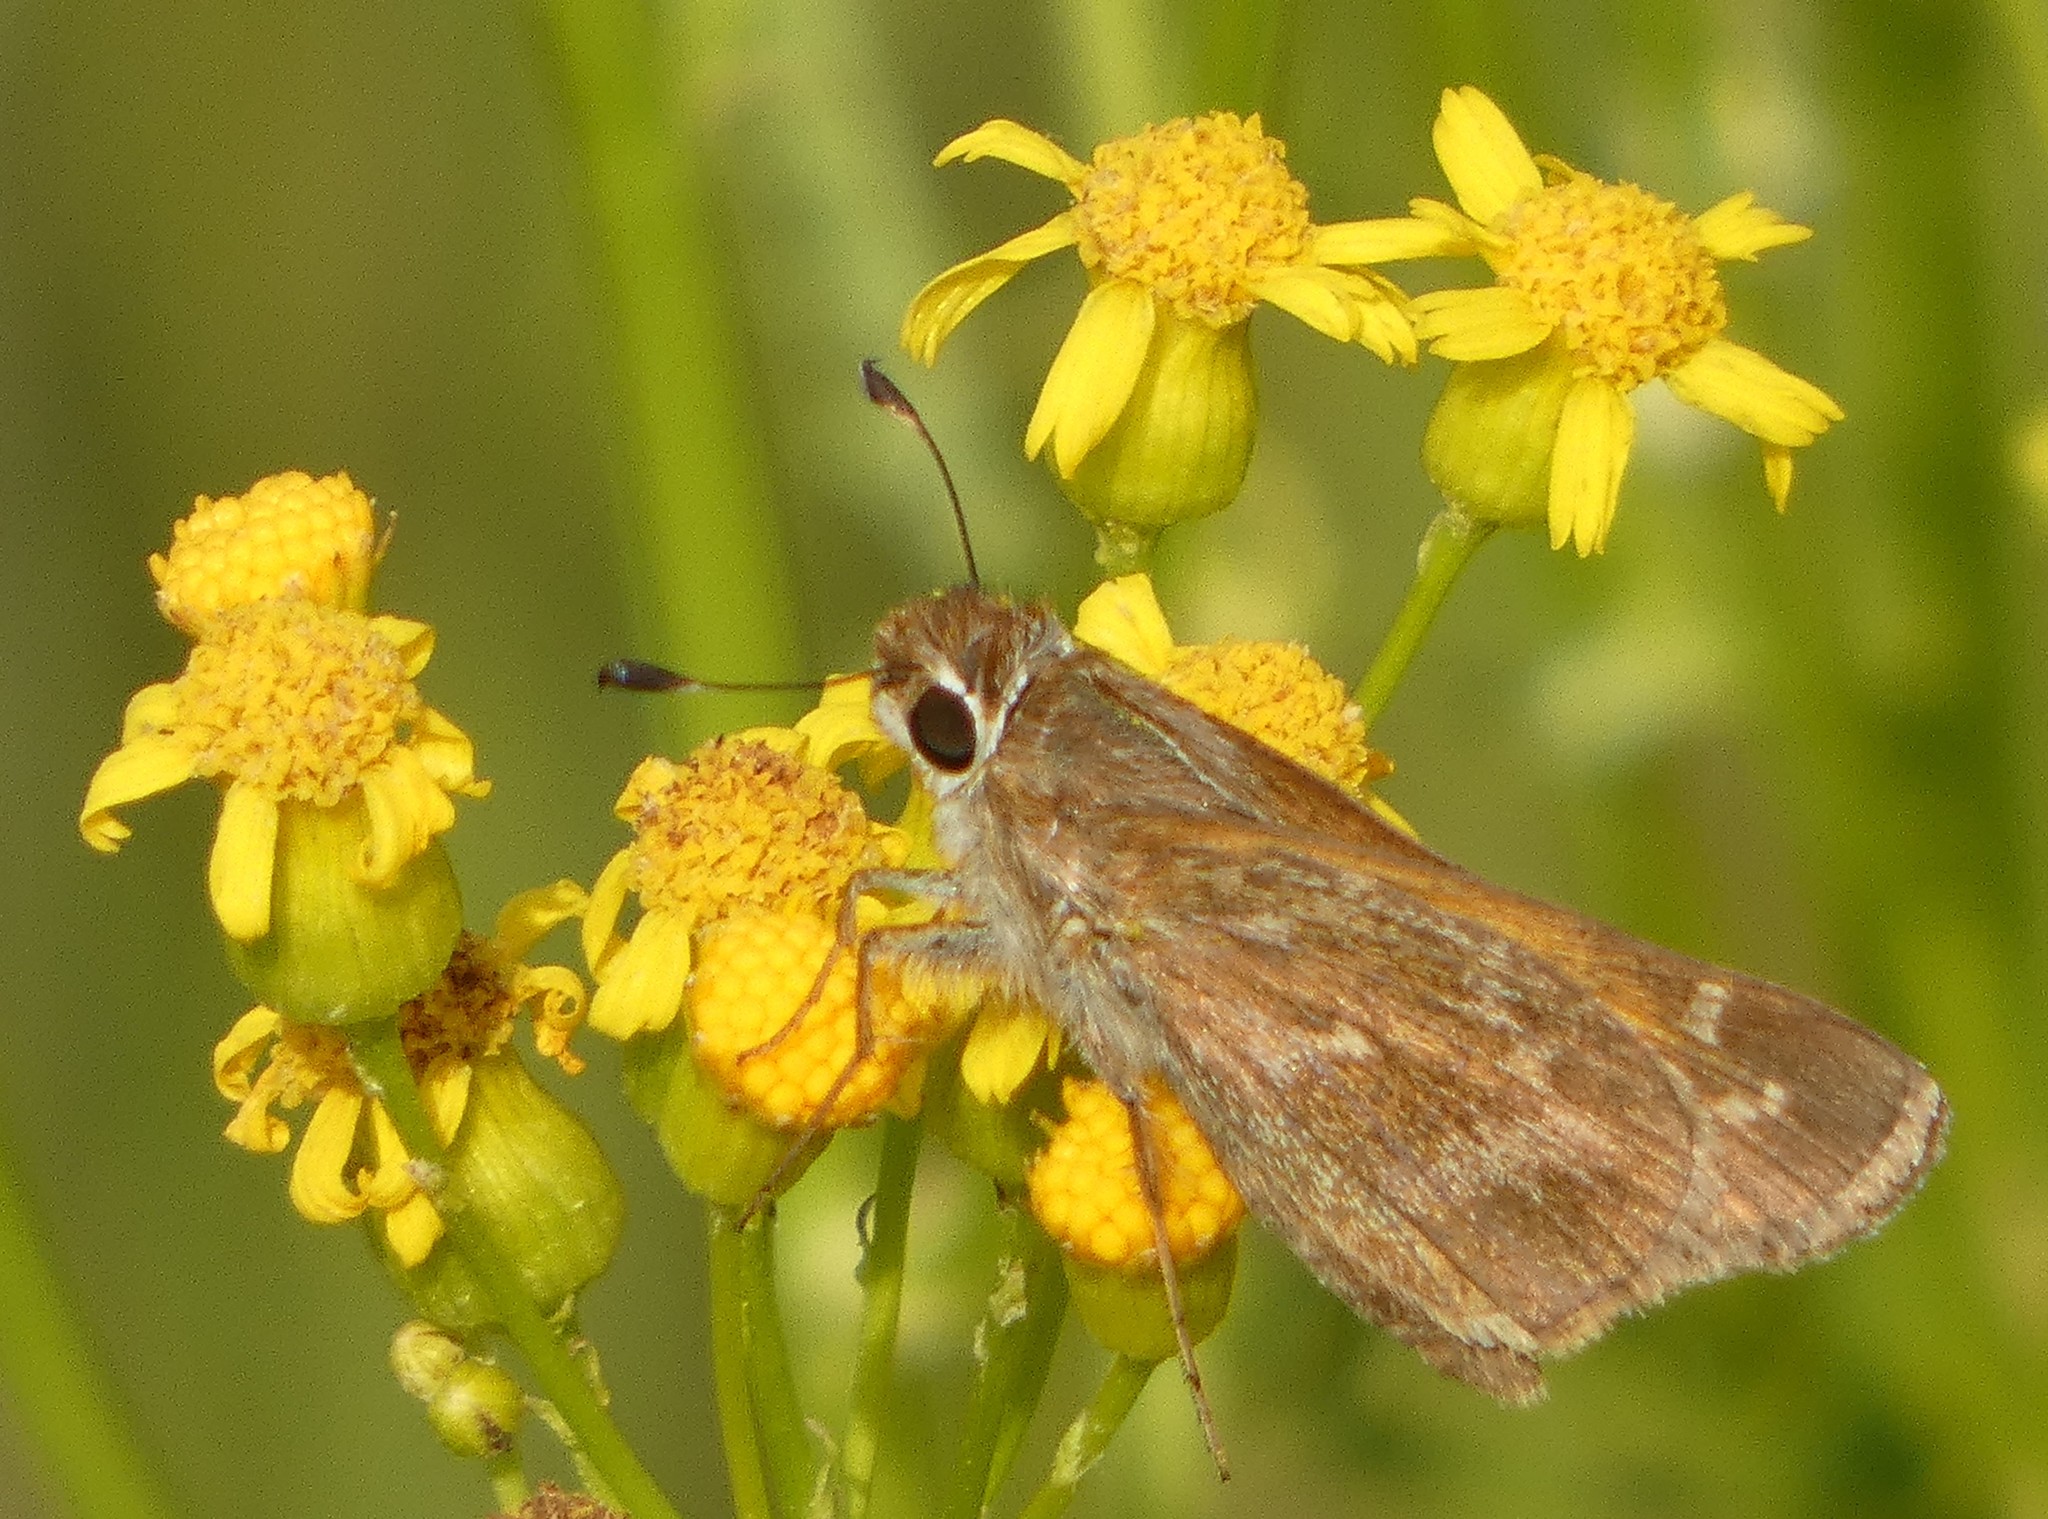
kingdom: Animalia
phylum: Arthropoda
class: Insecta
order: Lepidoptera
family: Hesperiidae
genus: Atalopedes
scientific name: Atalopedes
